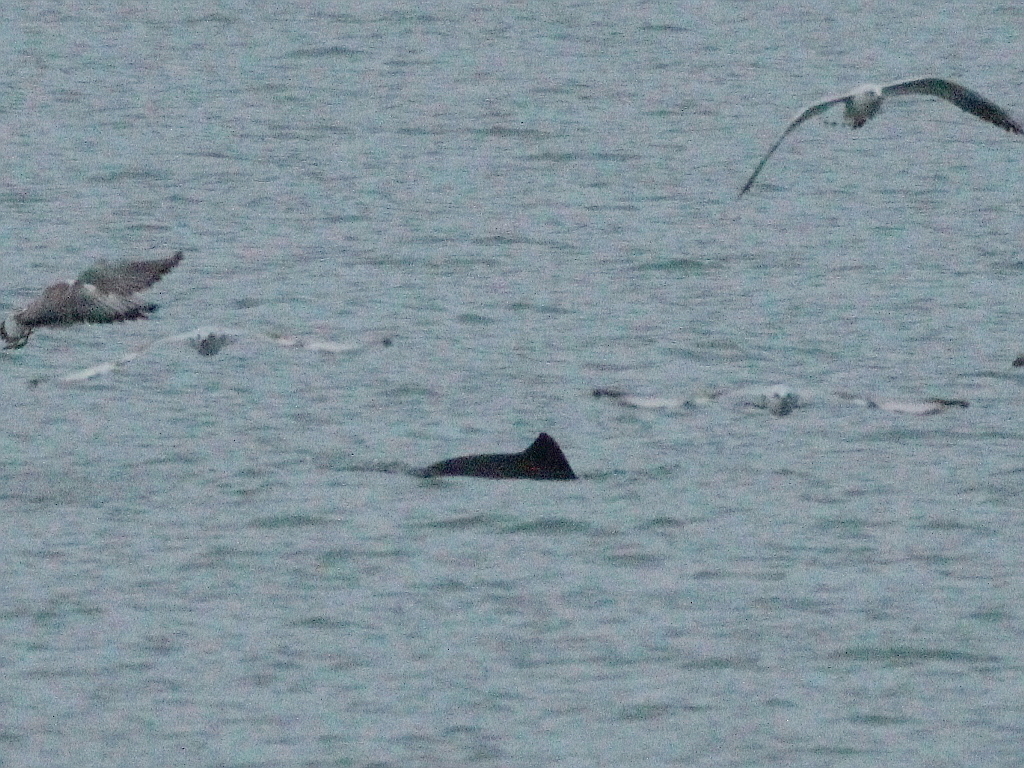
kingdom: Animalia
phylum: Chordata
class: Mammalia
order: Cetacea
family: Phocoenidae
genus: Phocoena
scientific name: Phocoena phocoena
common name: Harbor porpoise
